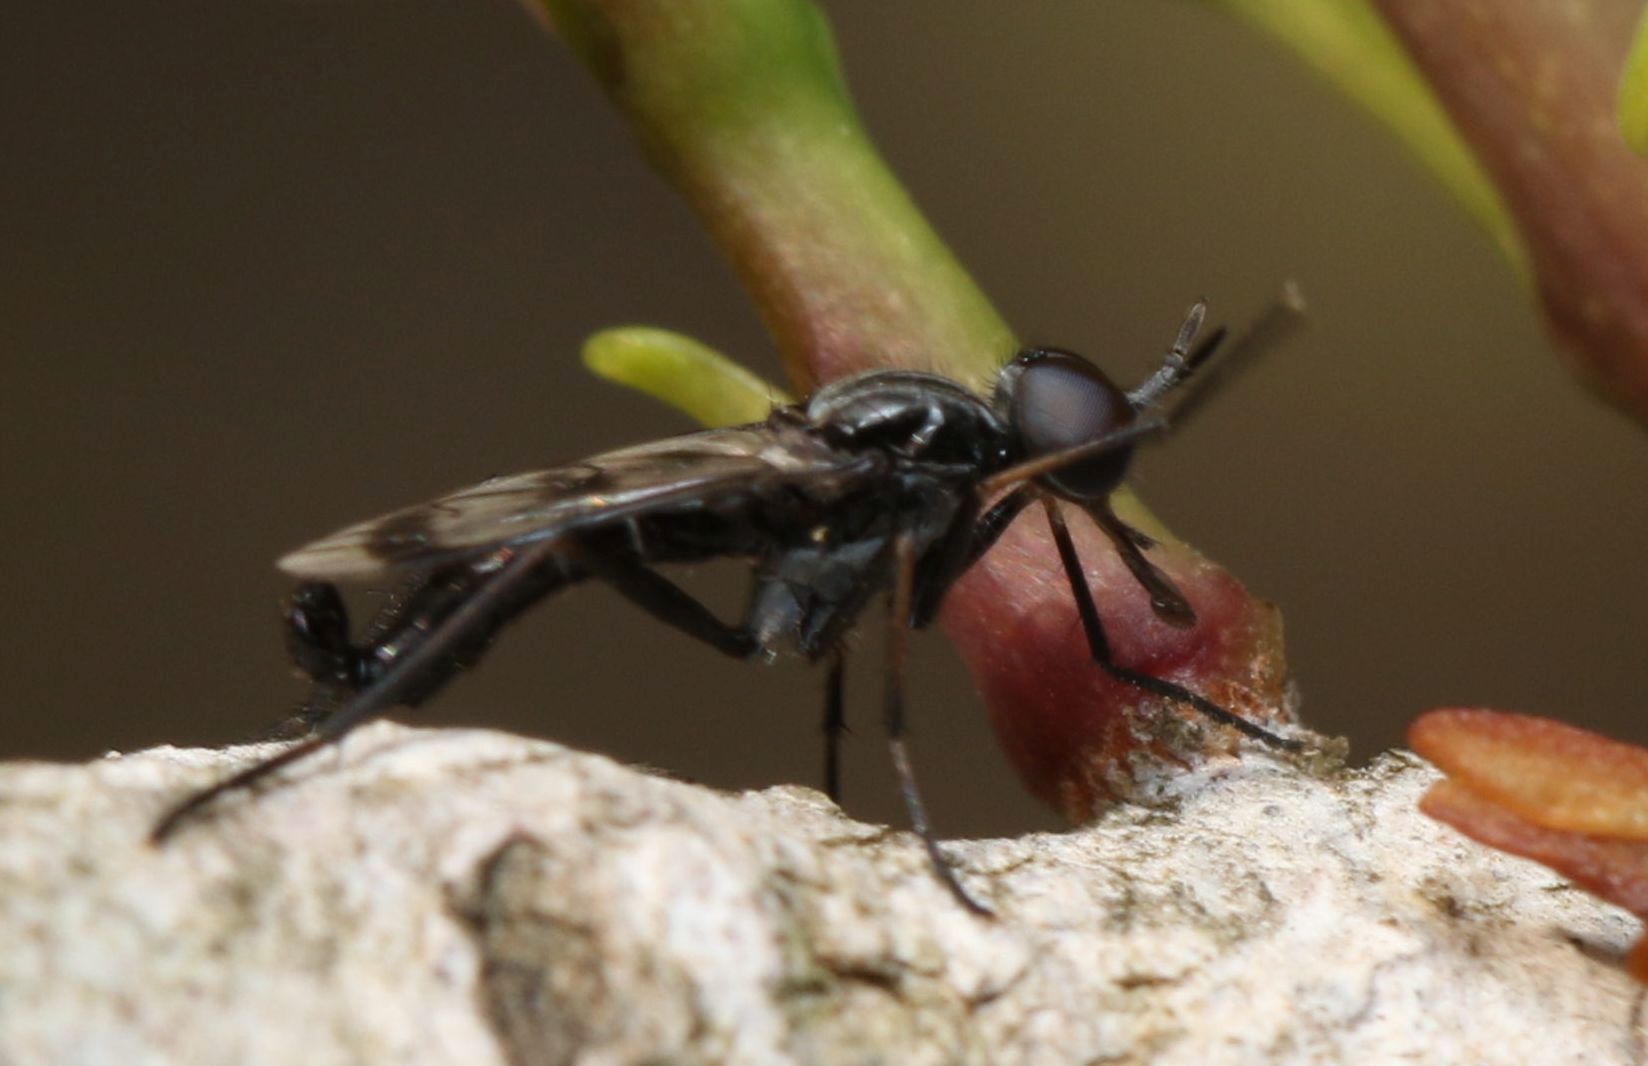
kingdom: Animalia
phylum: Arthropoda
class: Insecta
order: Diptera
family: Therevidae
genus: Hemigephyra
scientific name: Hemigephyra atra
